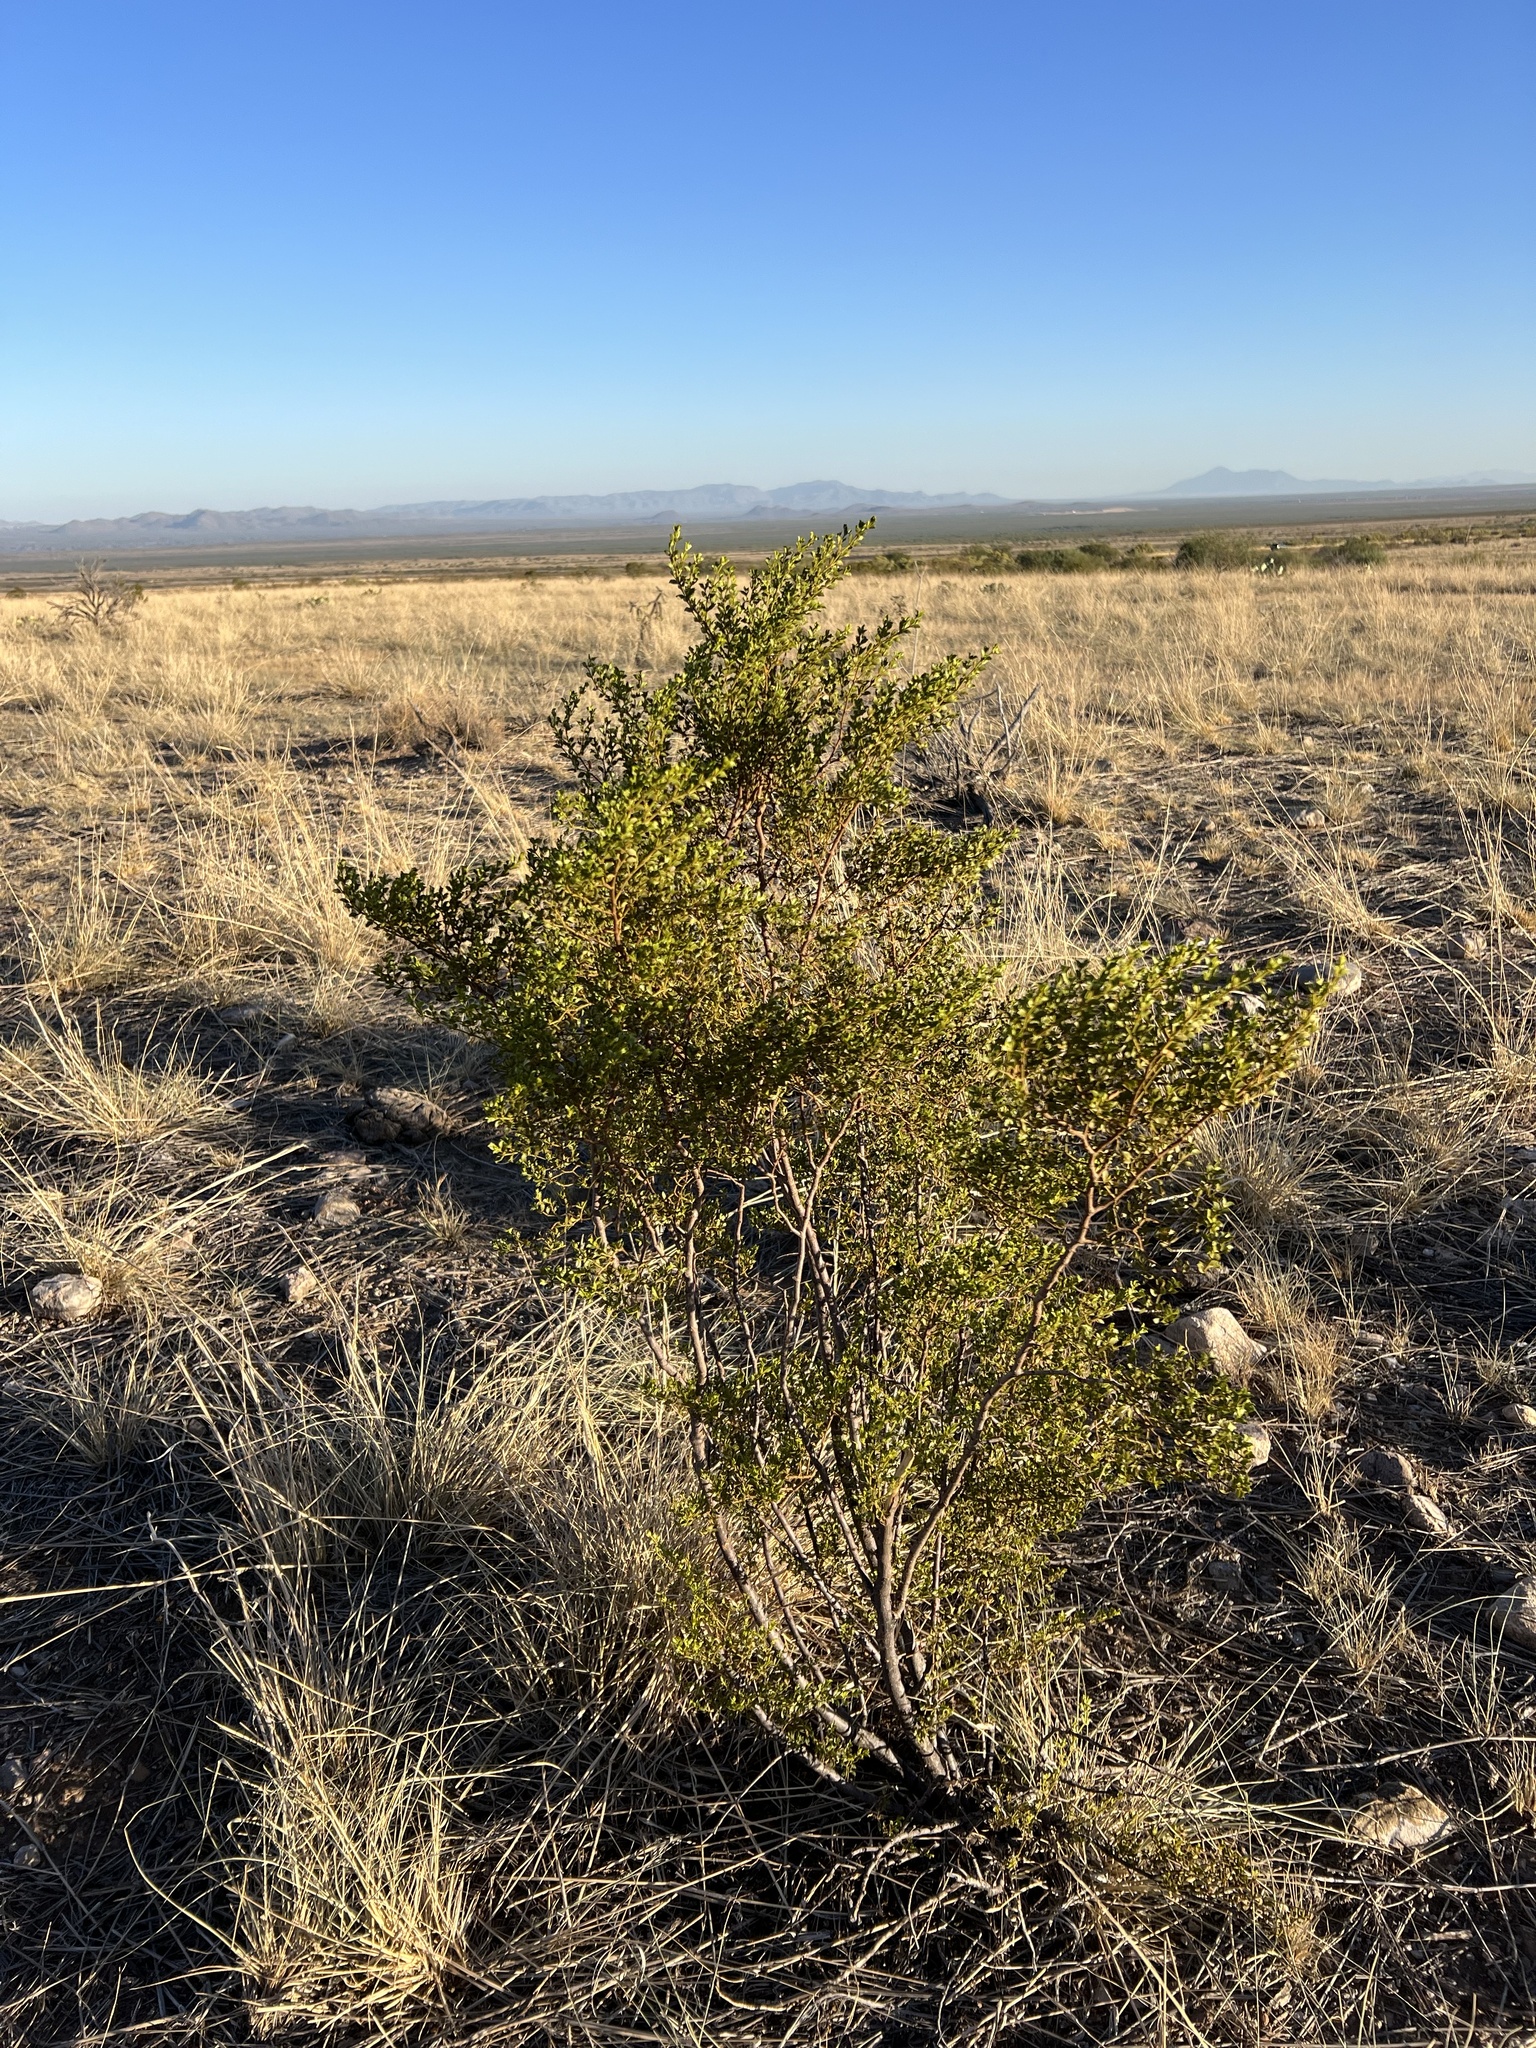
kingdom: Plantae
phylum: Tracheophyta
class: Magnoliopsida
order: Zygophyllales
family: Zygophyllaceae
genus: Larrea
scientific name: Larrea tridentata
